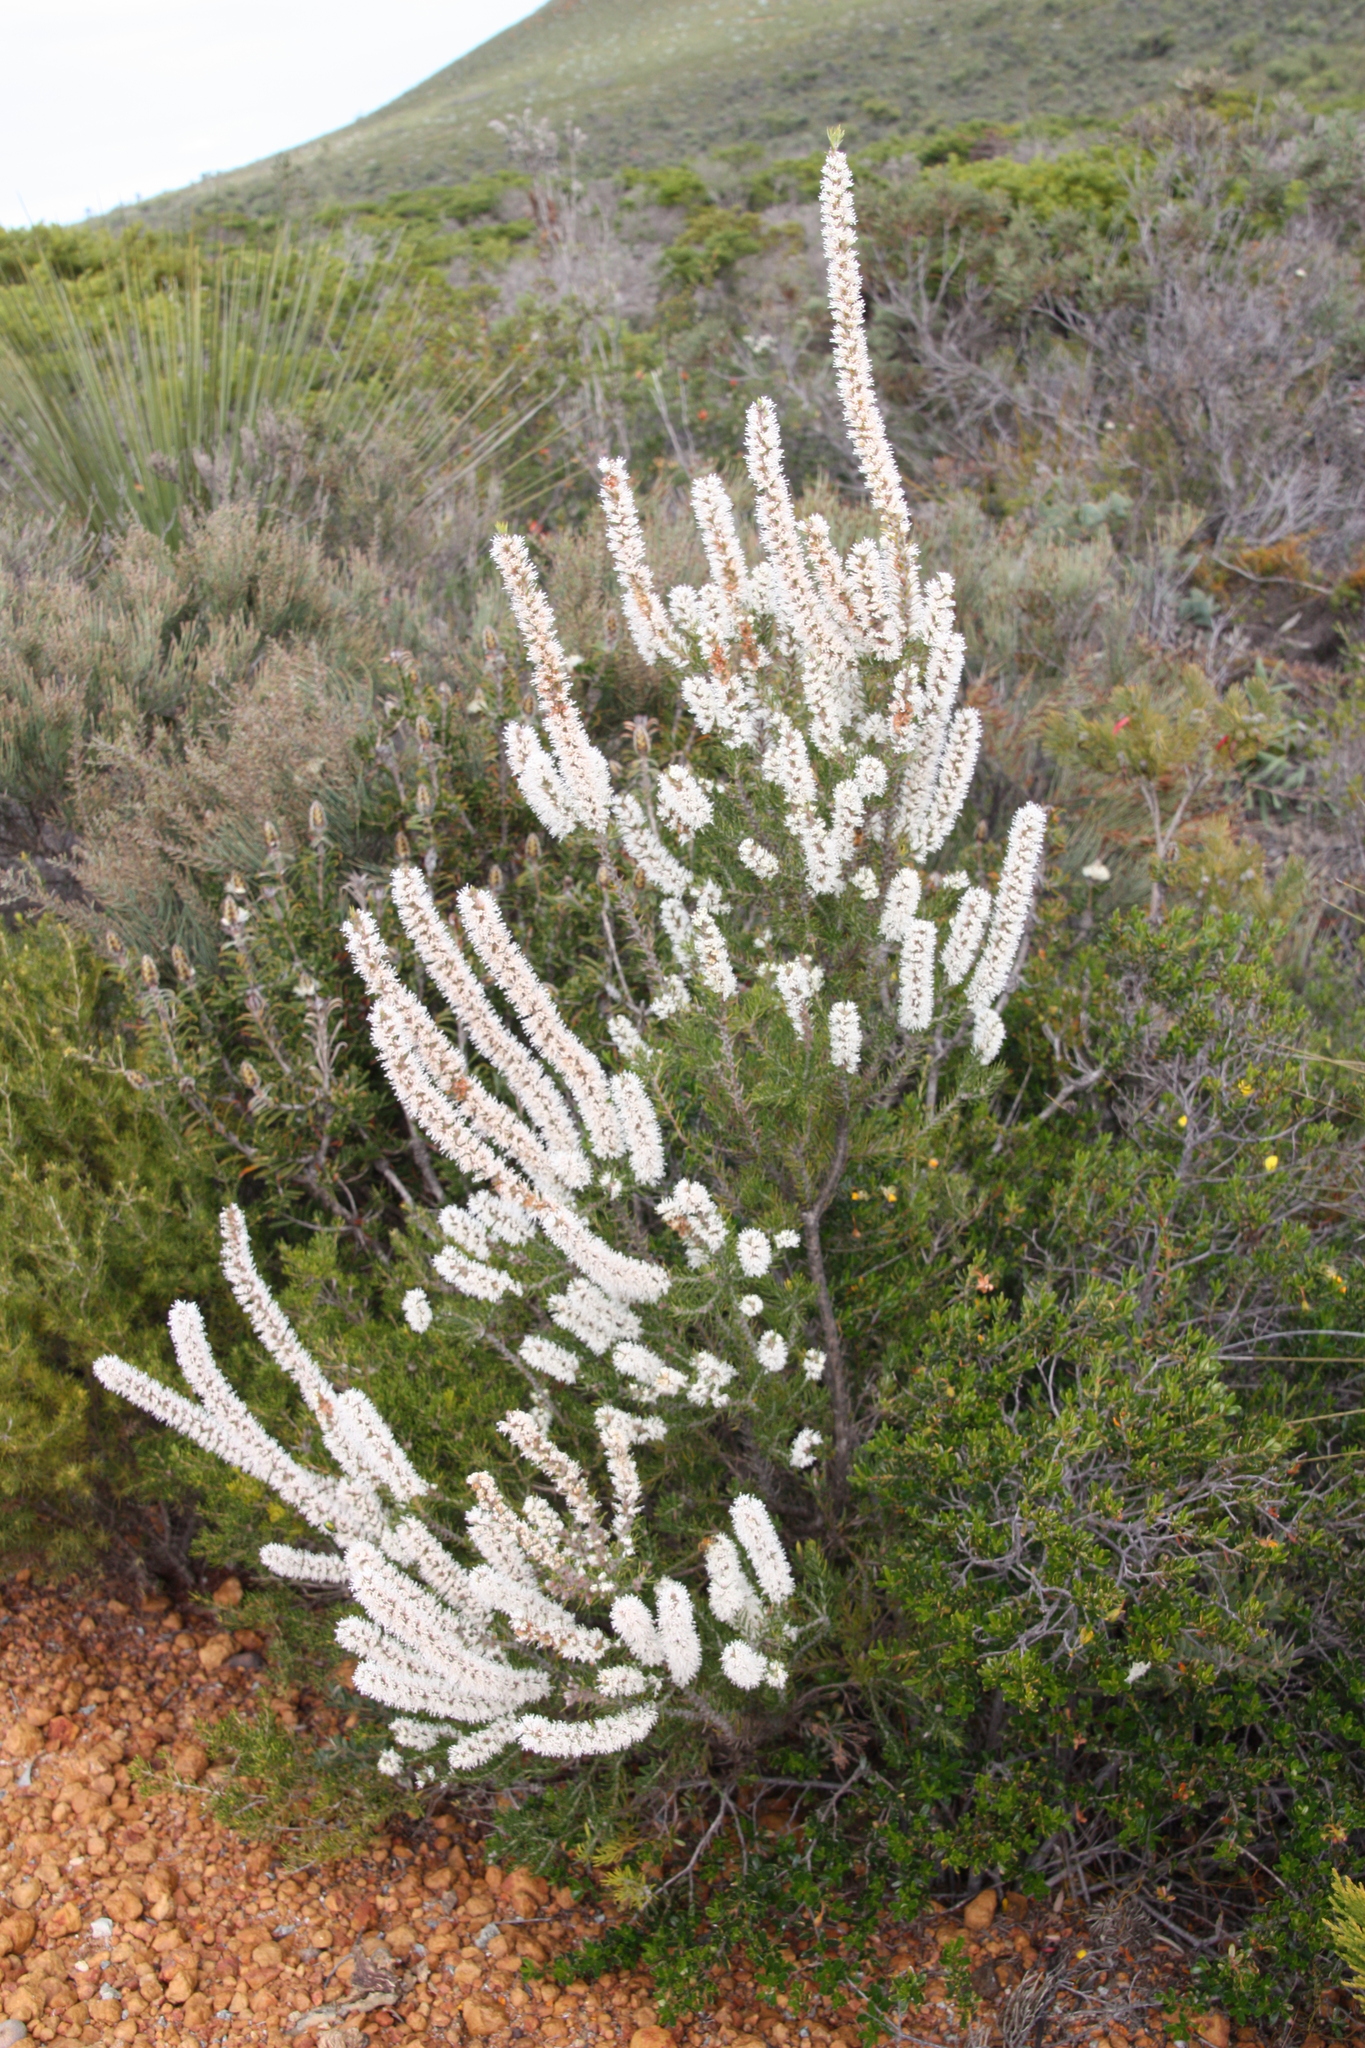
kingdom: Plantae
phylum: Tracheophyta
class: Magnoliopsida
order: Proteales
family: Proteaceae
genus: Hakea
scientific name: Hakea costata
